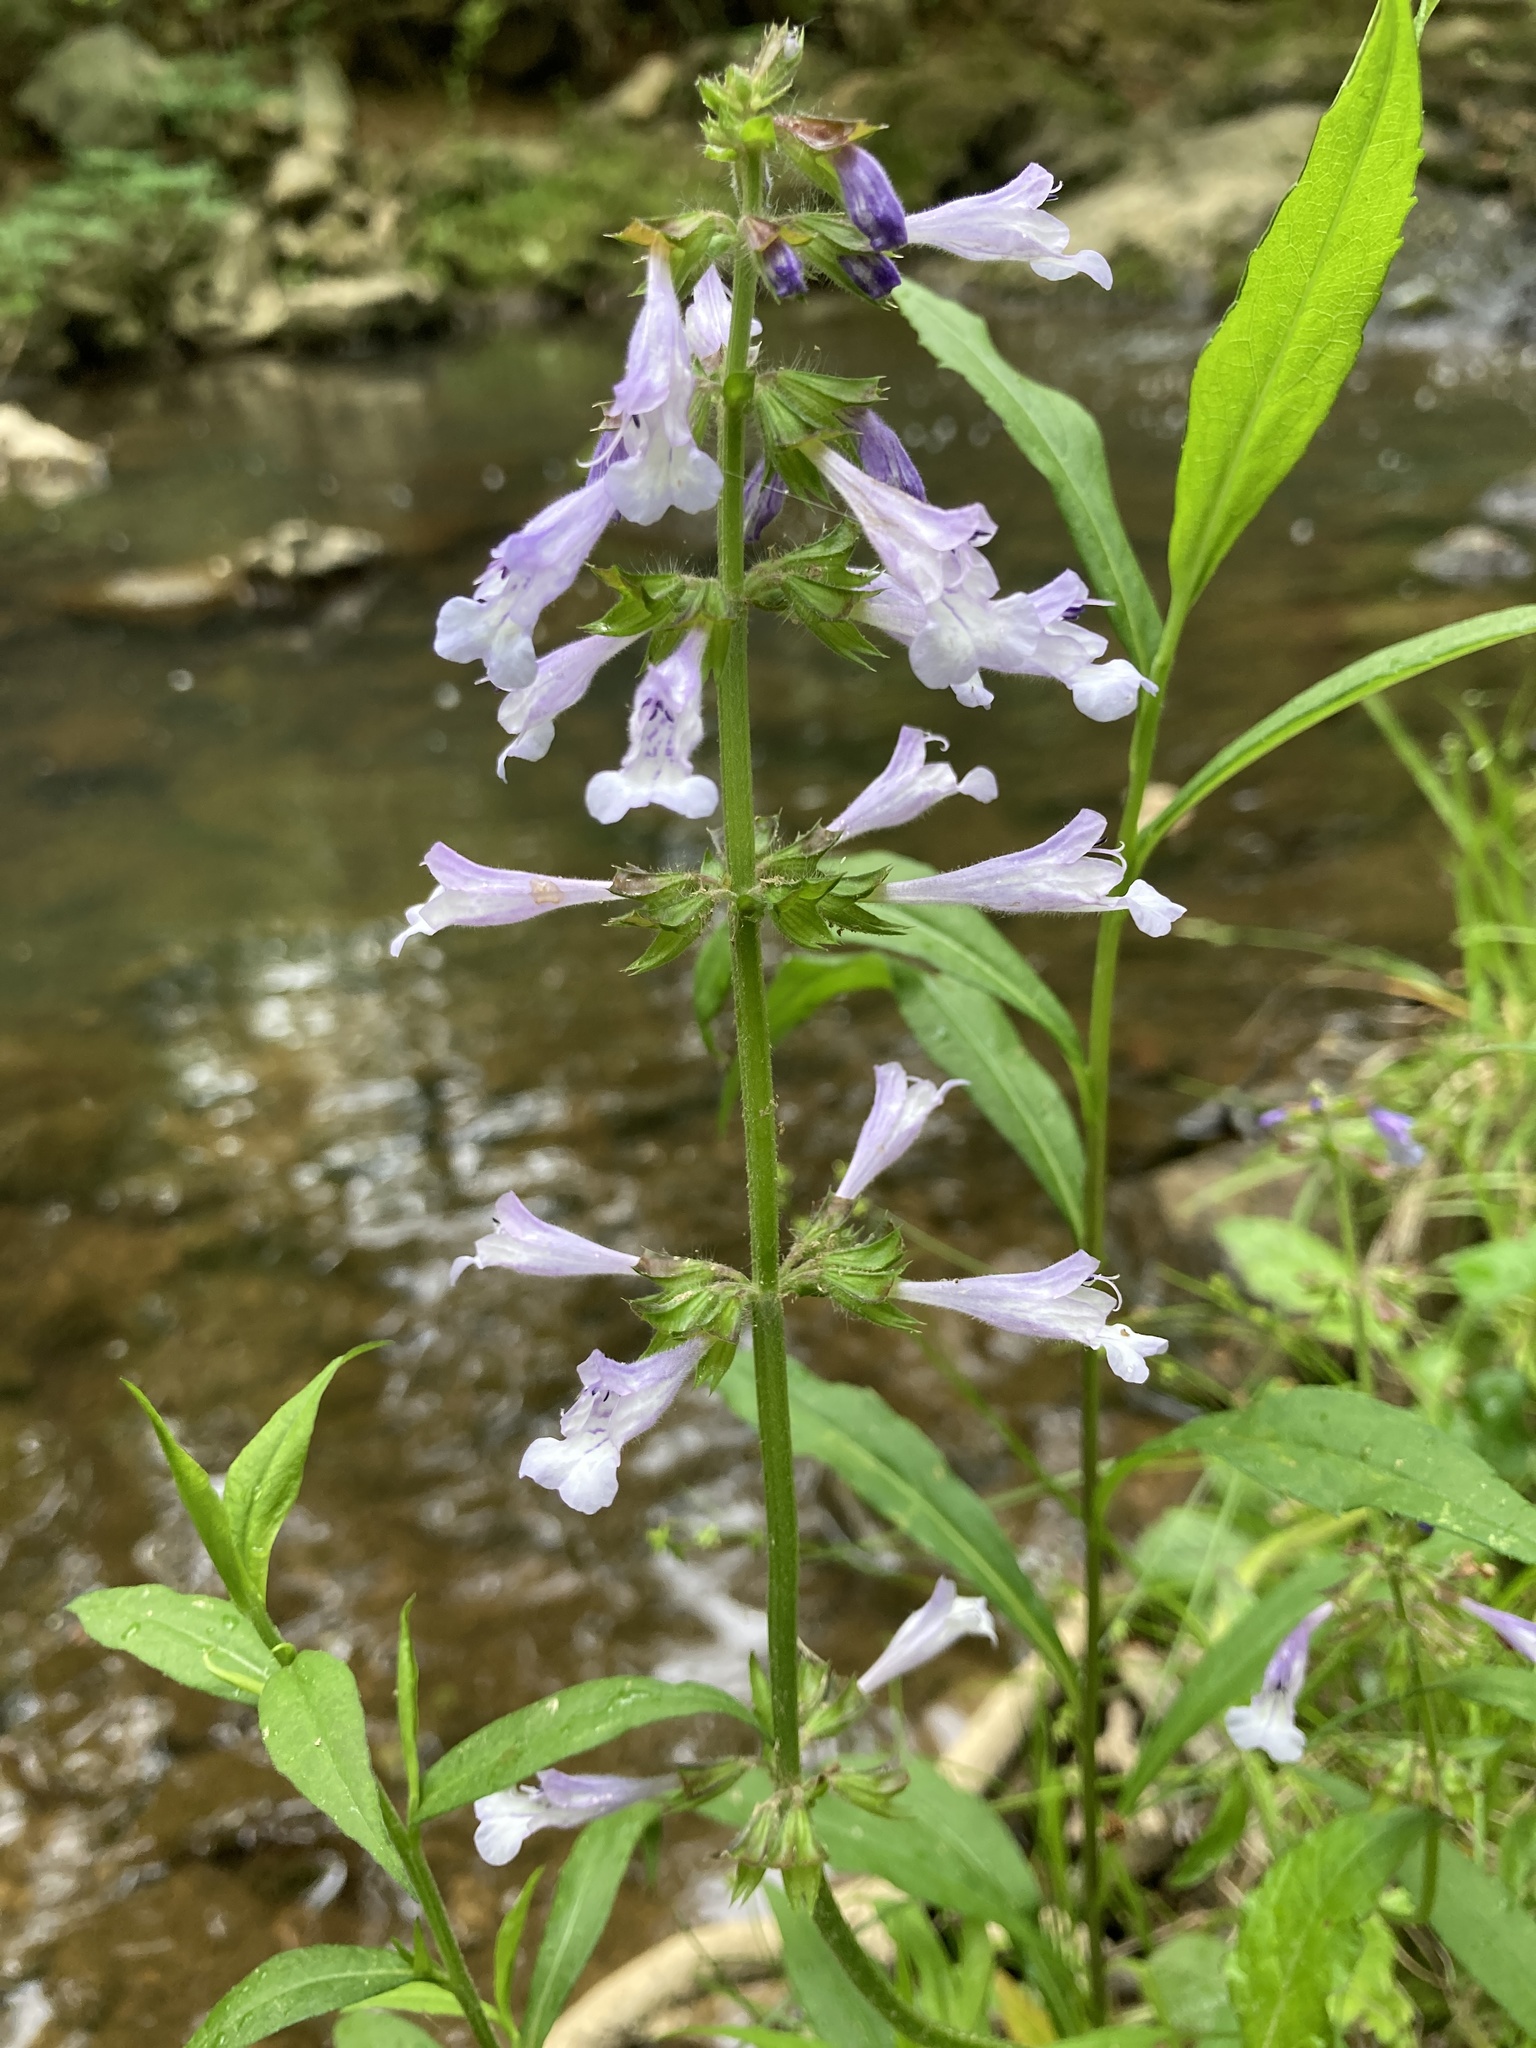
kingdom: Plantae
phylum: Tracheophyta
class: Magnoliopsida
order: Lamiales
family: Lamiaceae
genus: Salvia
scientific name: Salvia lyrata
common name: Cancerweed
